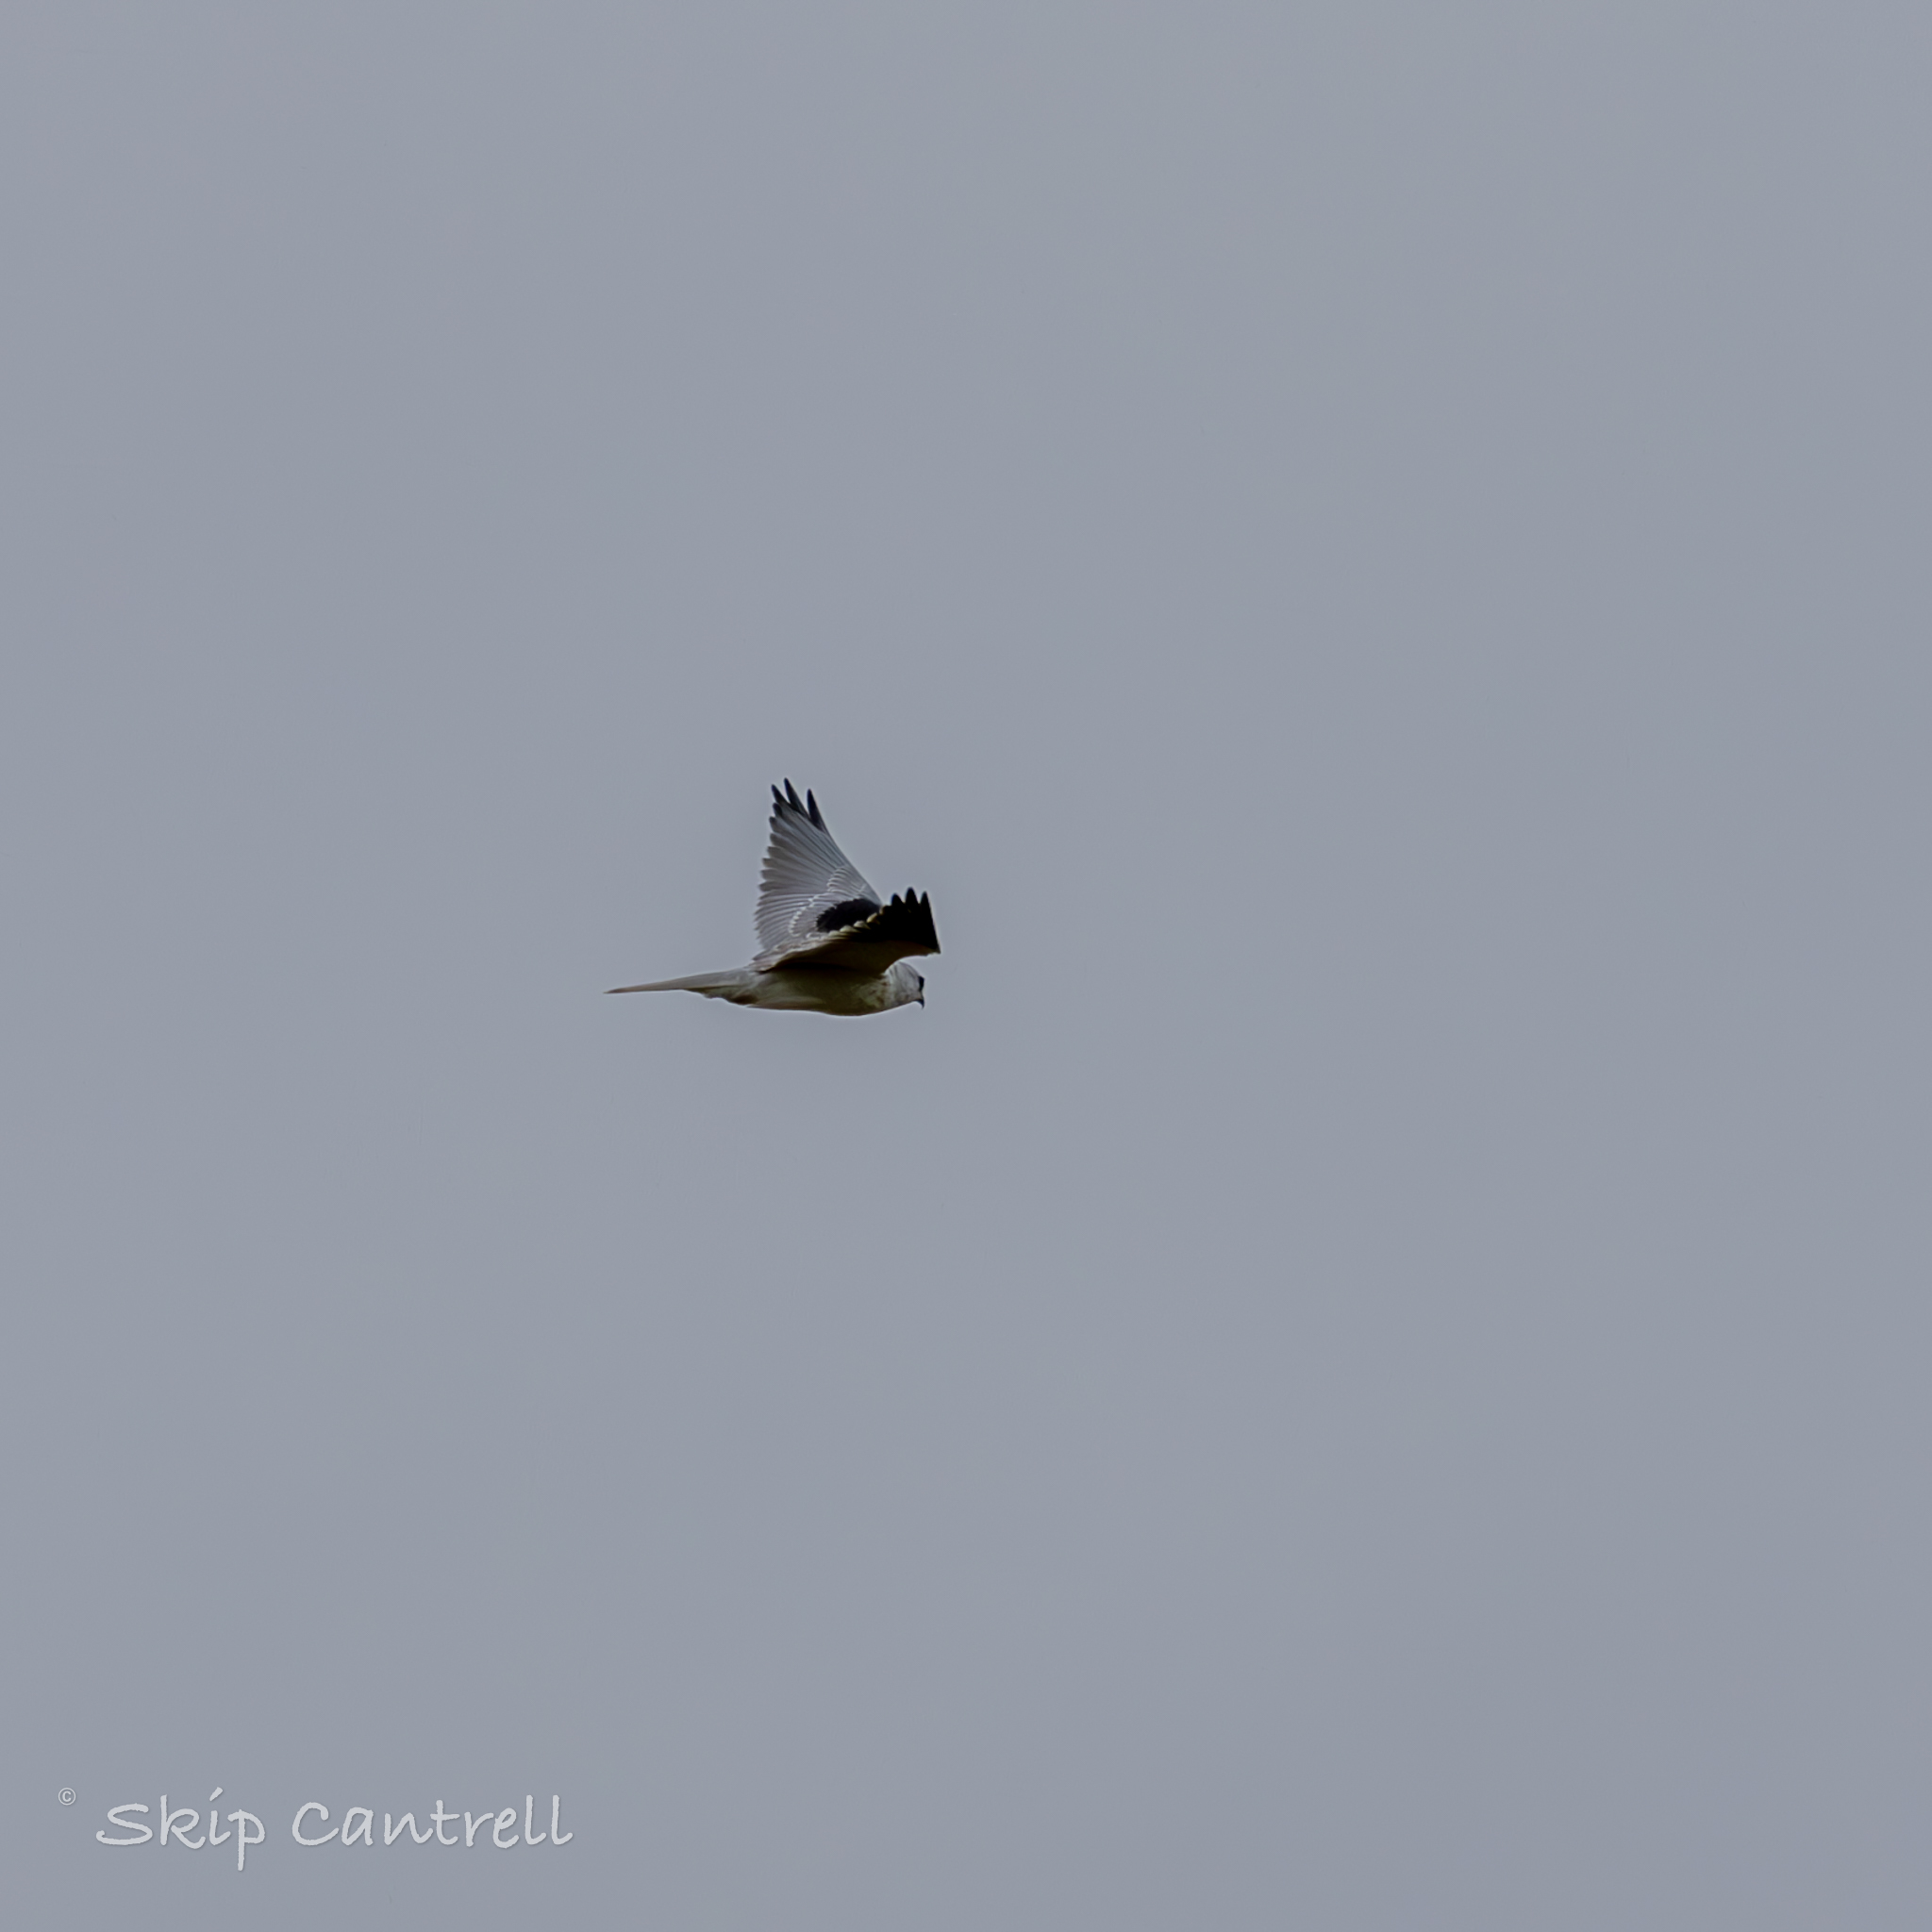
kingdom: Animalia
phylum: Chordata
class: Aves
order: Accipitriformes
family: Accipitridae
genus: Elanus
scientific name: Elanus leucurus
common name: White-tailed kite
